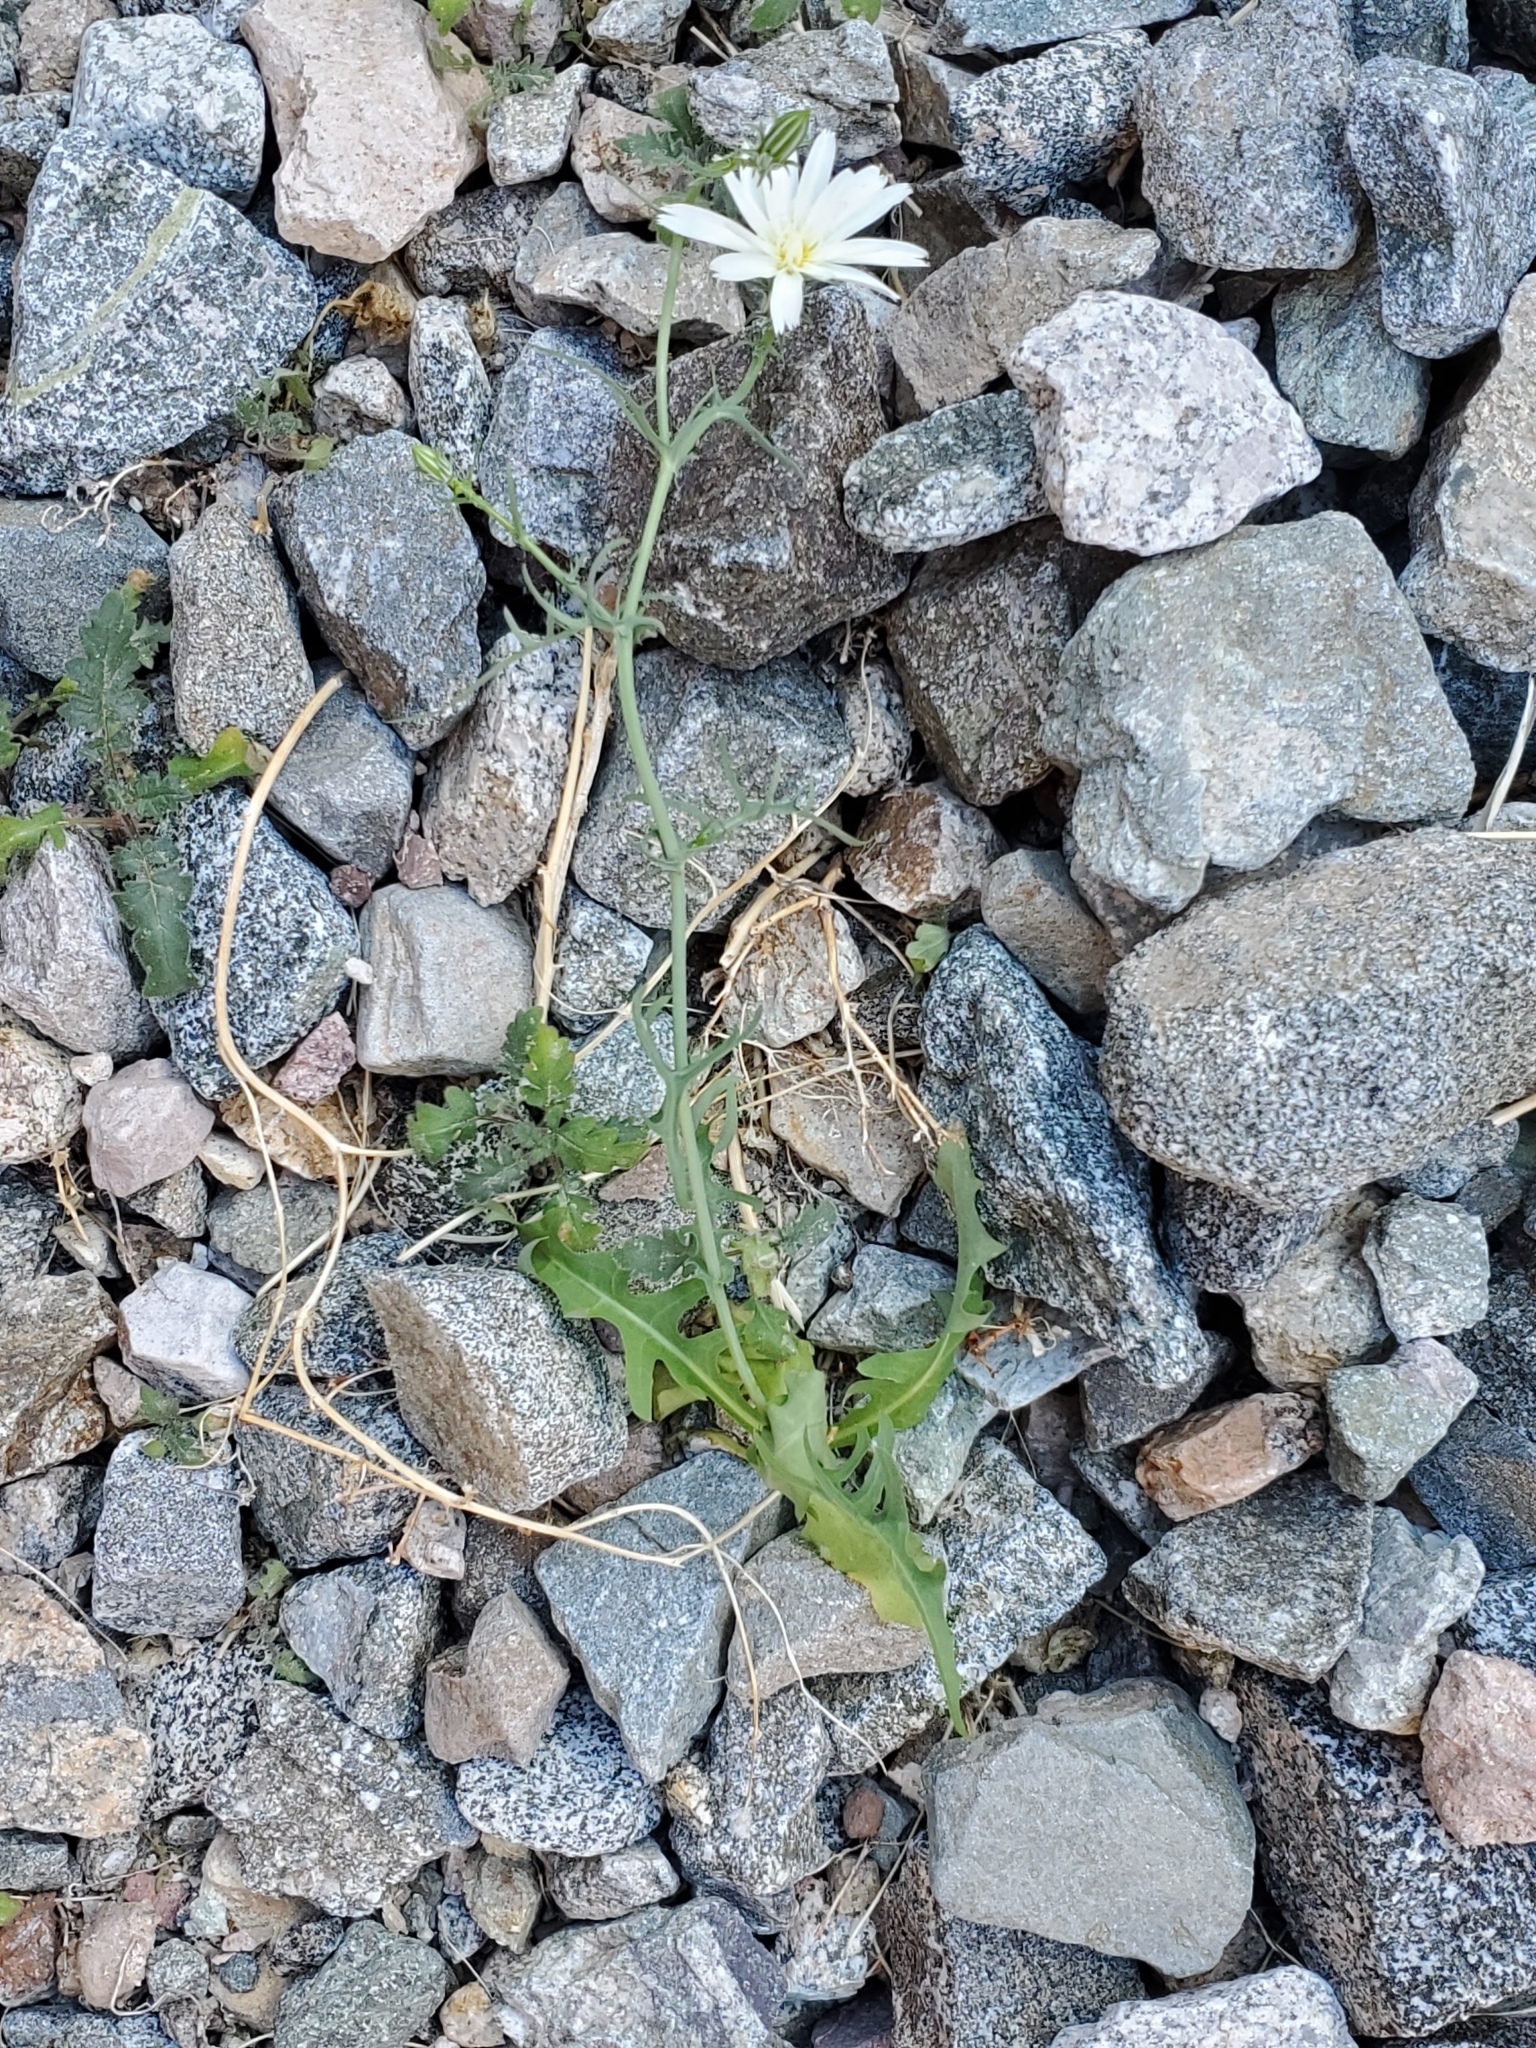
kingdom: Plantae
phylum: Tracheophyta
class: Magnoliopsida
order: Asterales
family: Asteraceae
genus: Rafinesquia
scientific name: Rafinesquia neomexicana
